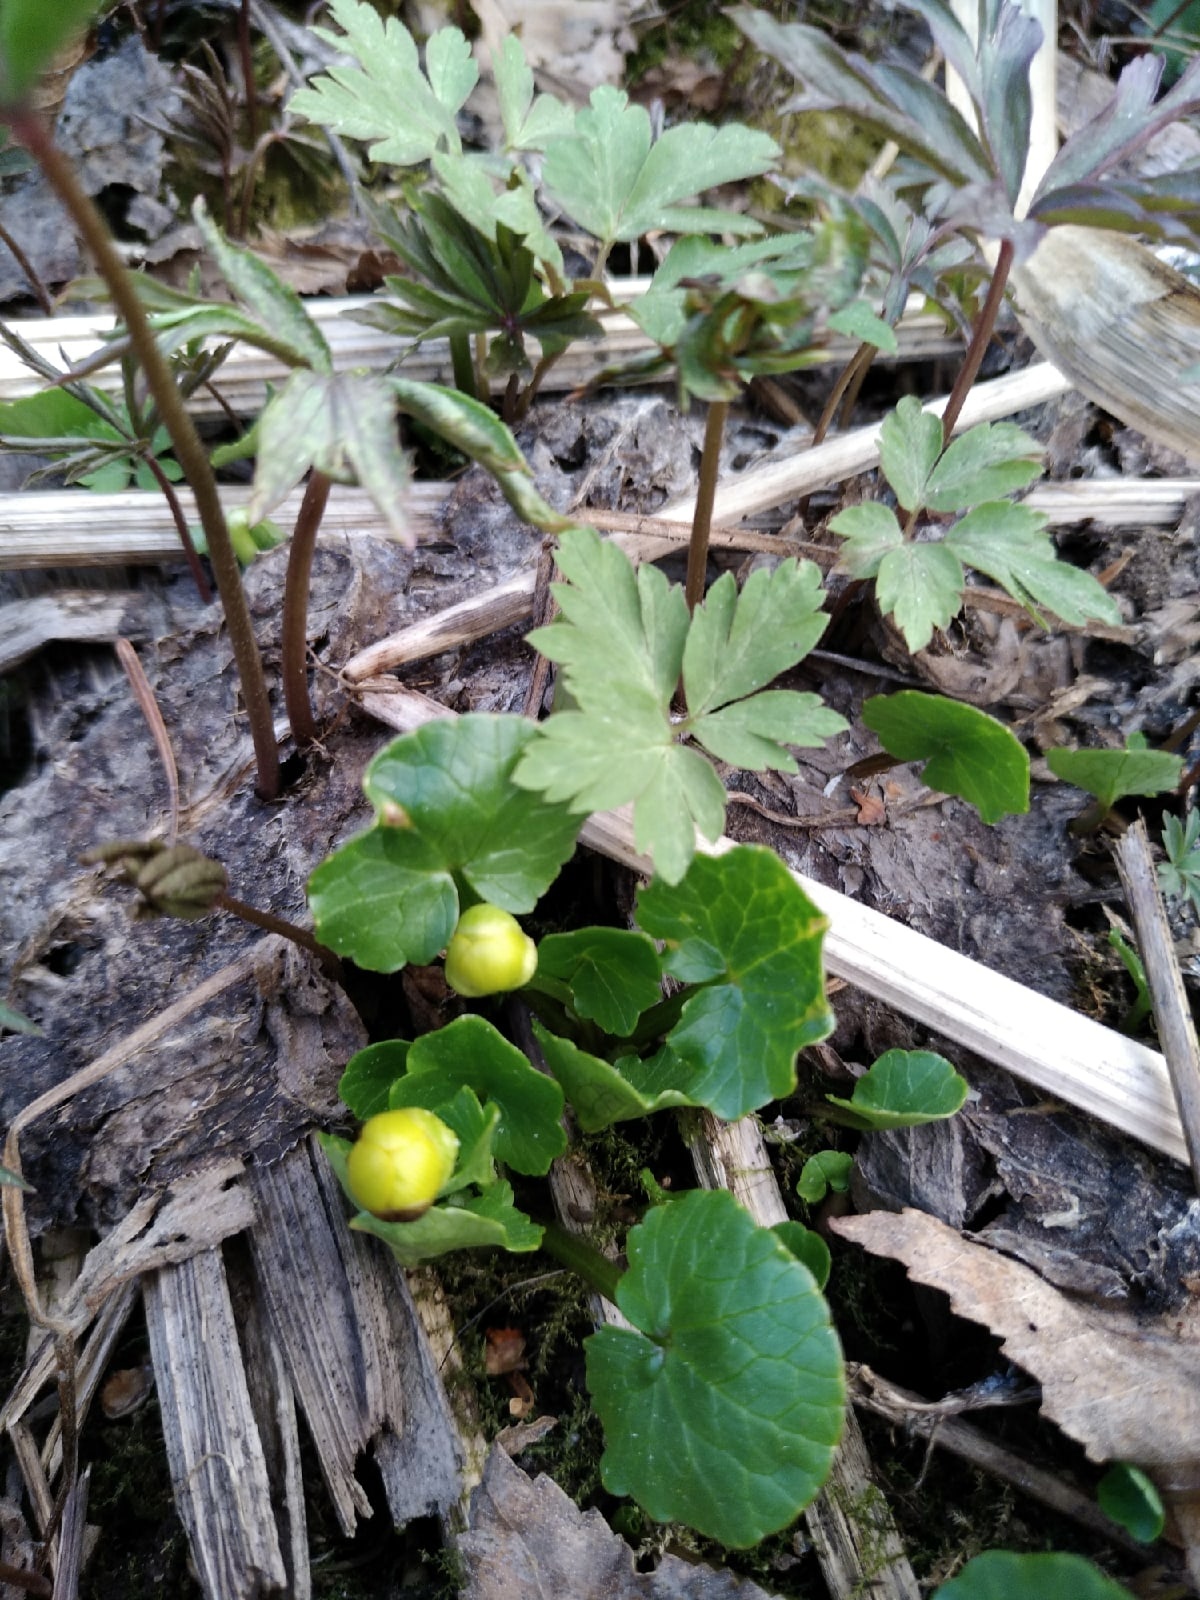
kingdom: Plantae
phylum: Tracheophyta
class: Magnoliopsida
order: Ranunculales
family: Ranunculaceae
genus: Ficaria
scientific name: Ficaria verna
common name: Lesser celandine
